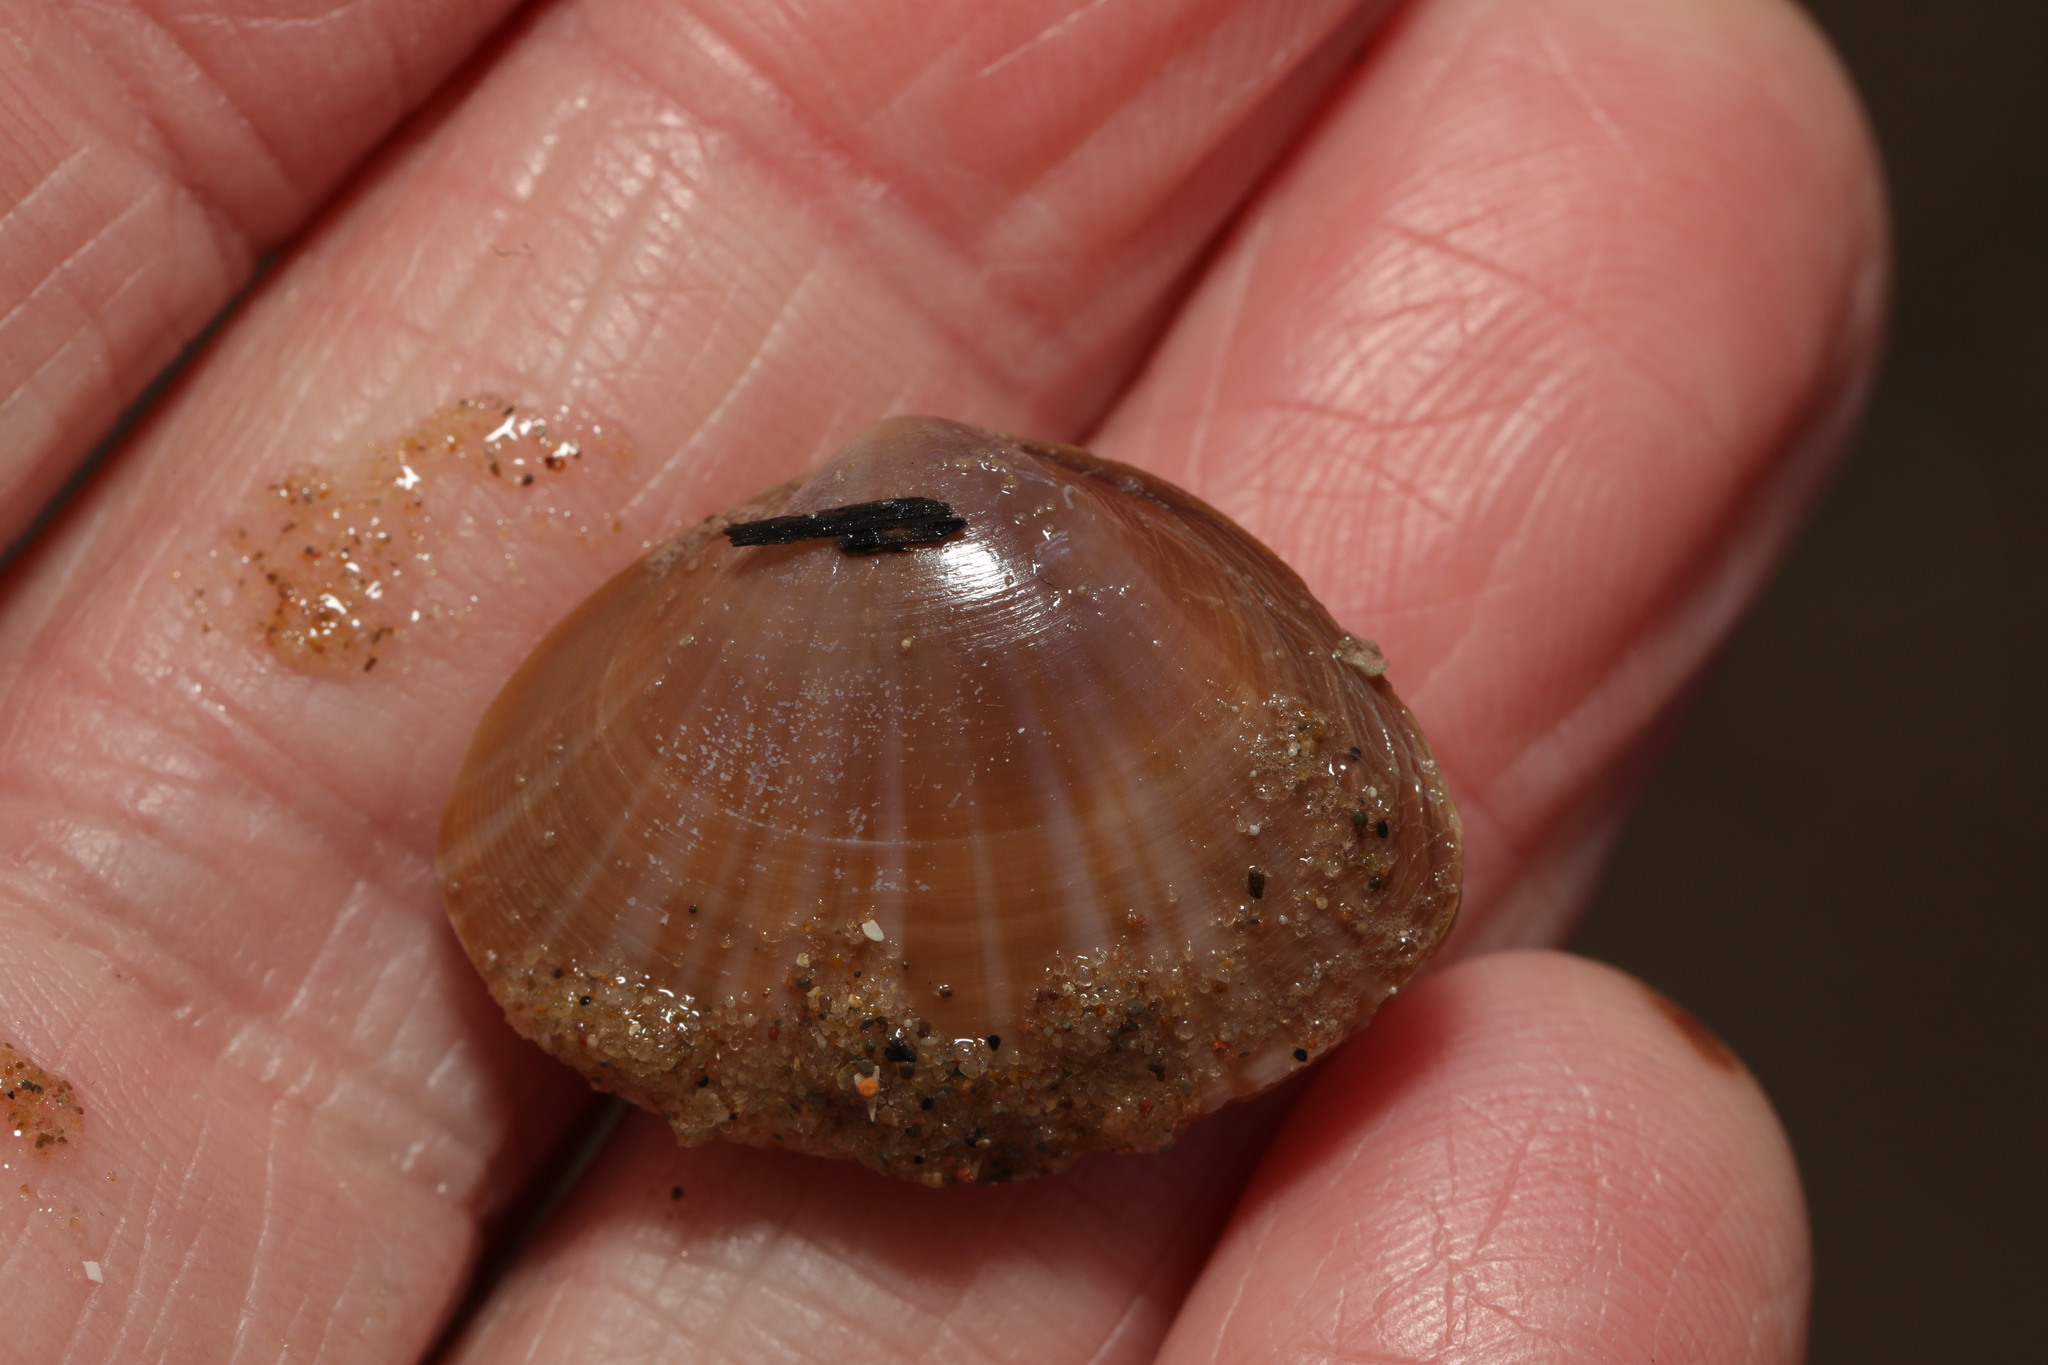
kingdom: Animalia
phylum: Mollusca
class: Bivalvia
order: Venerida
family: Mactridae
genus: Mactra
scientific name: Mactra stultorum
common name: Rayed trough shell
